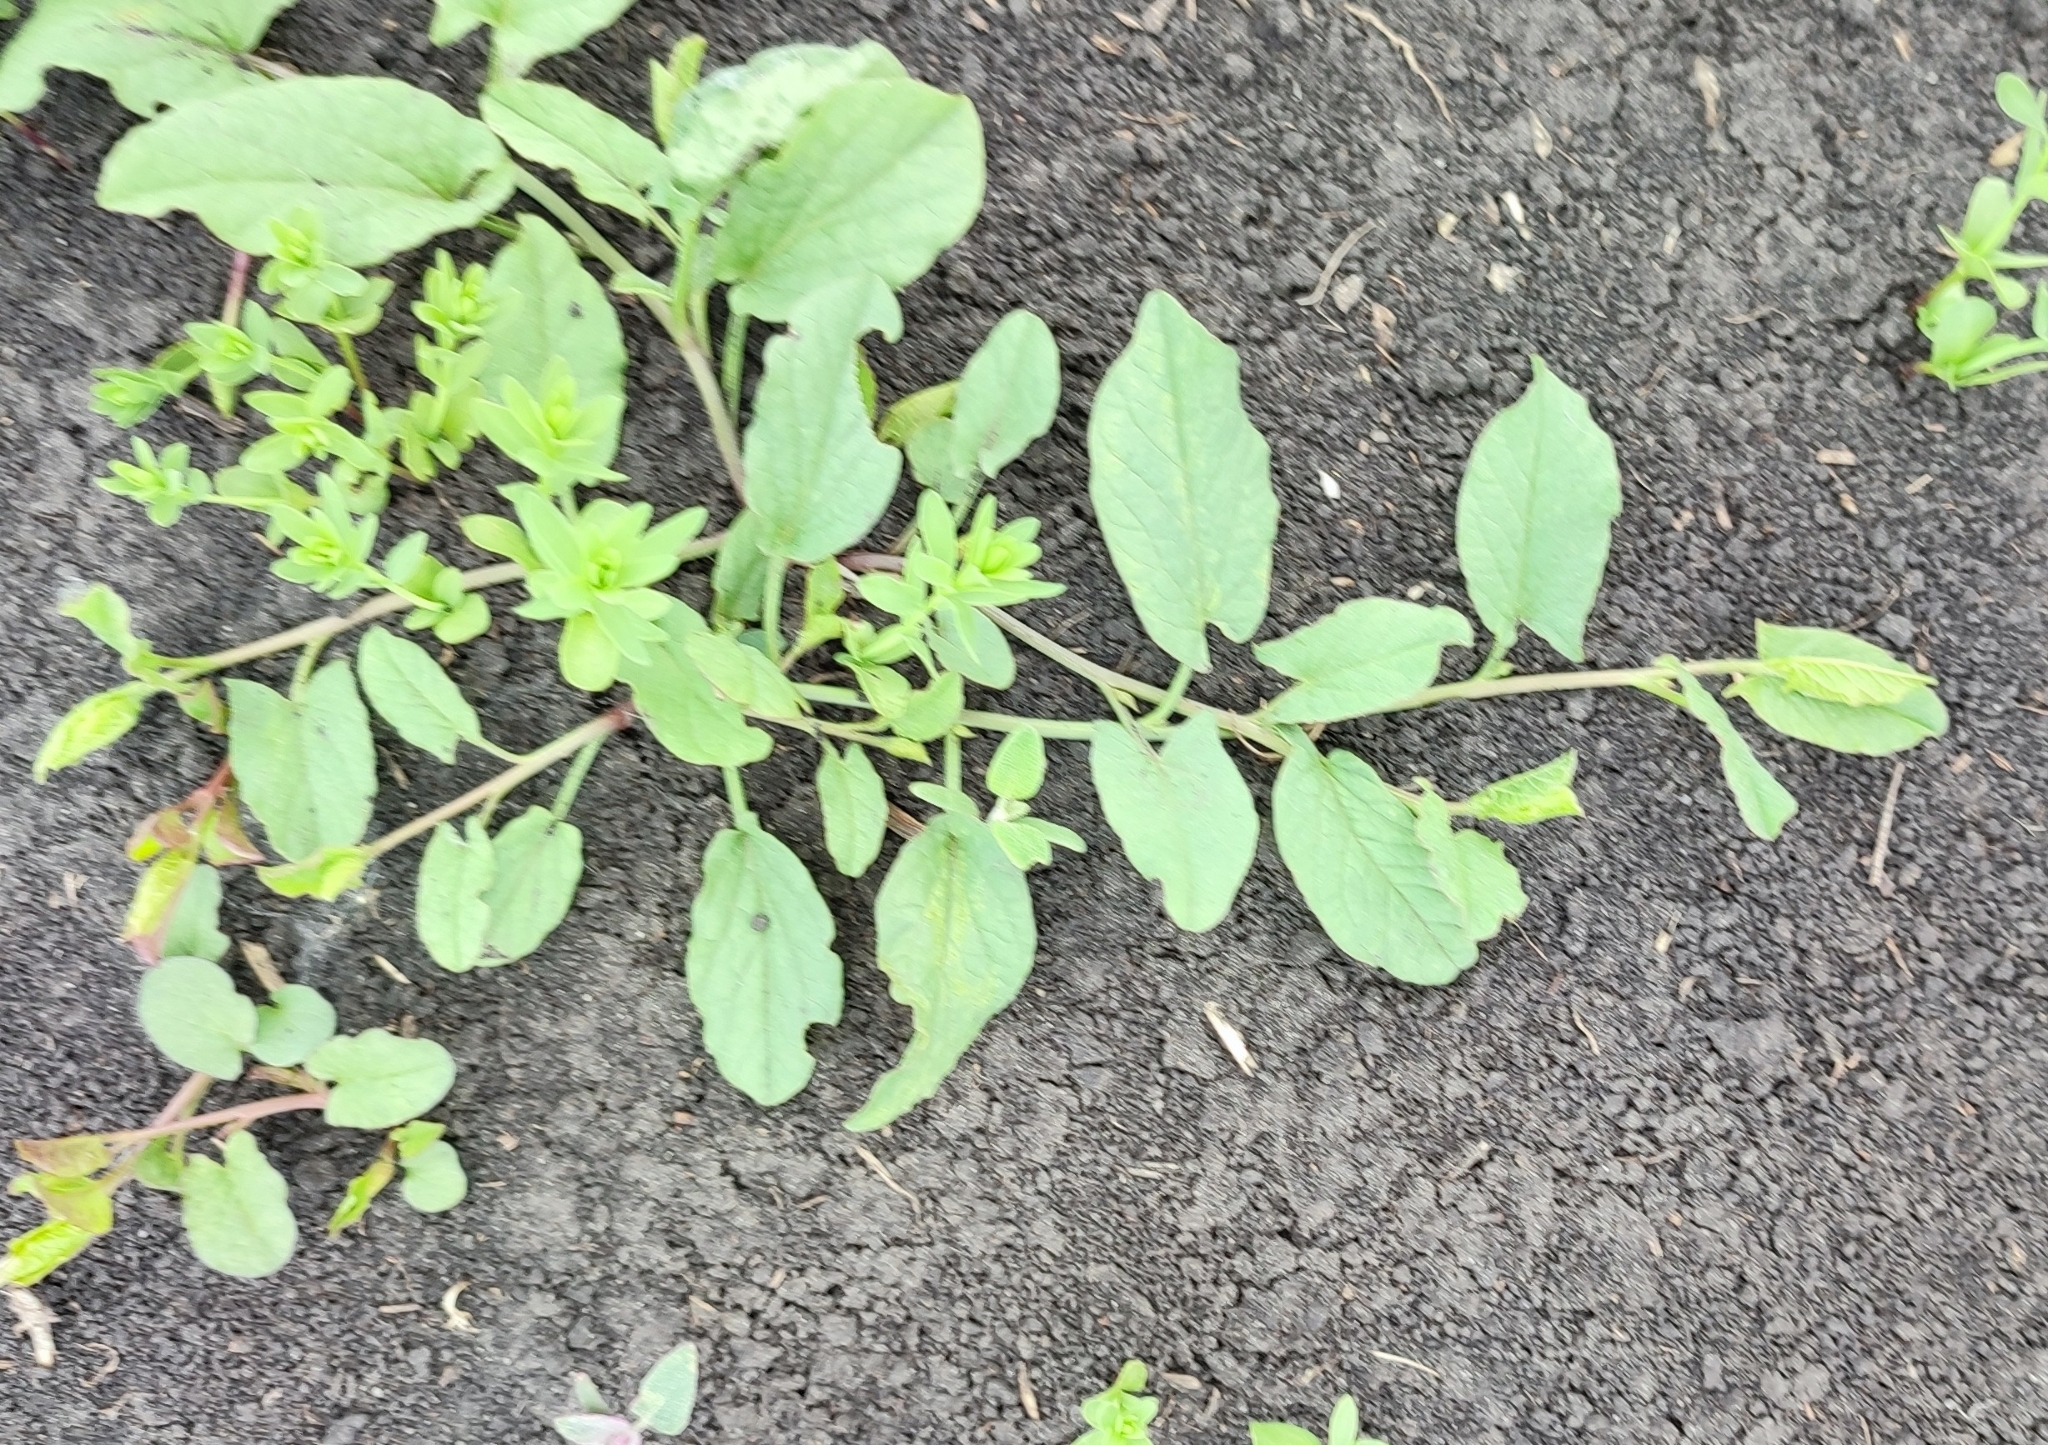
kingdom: Plantae
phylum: Tracheophyta
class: Magnoliopsida
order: Solanales
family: Convolvulaceae
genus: Convolvulus
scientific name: Convolvulus arvensis
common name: Field bindweed
